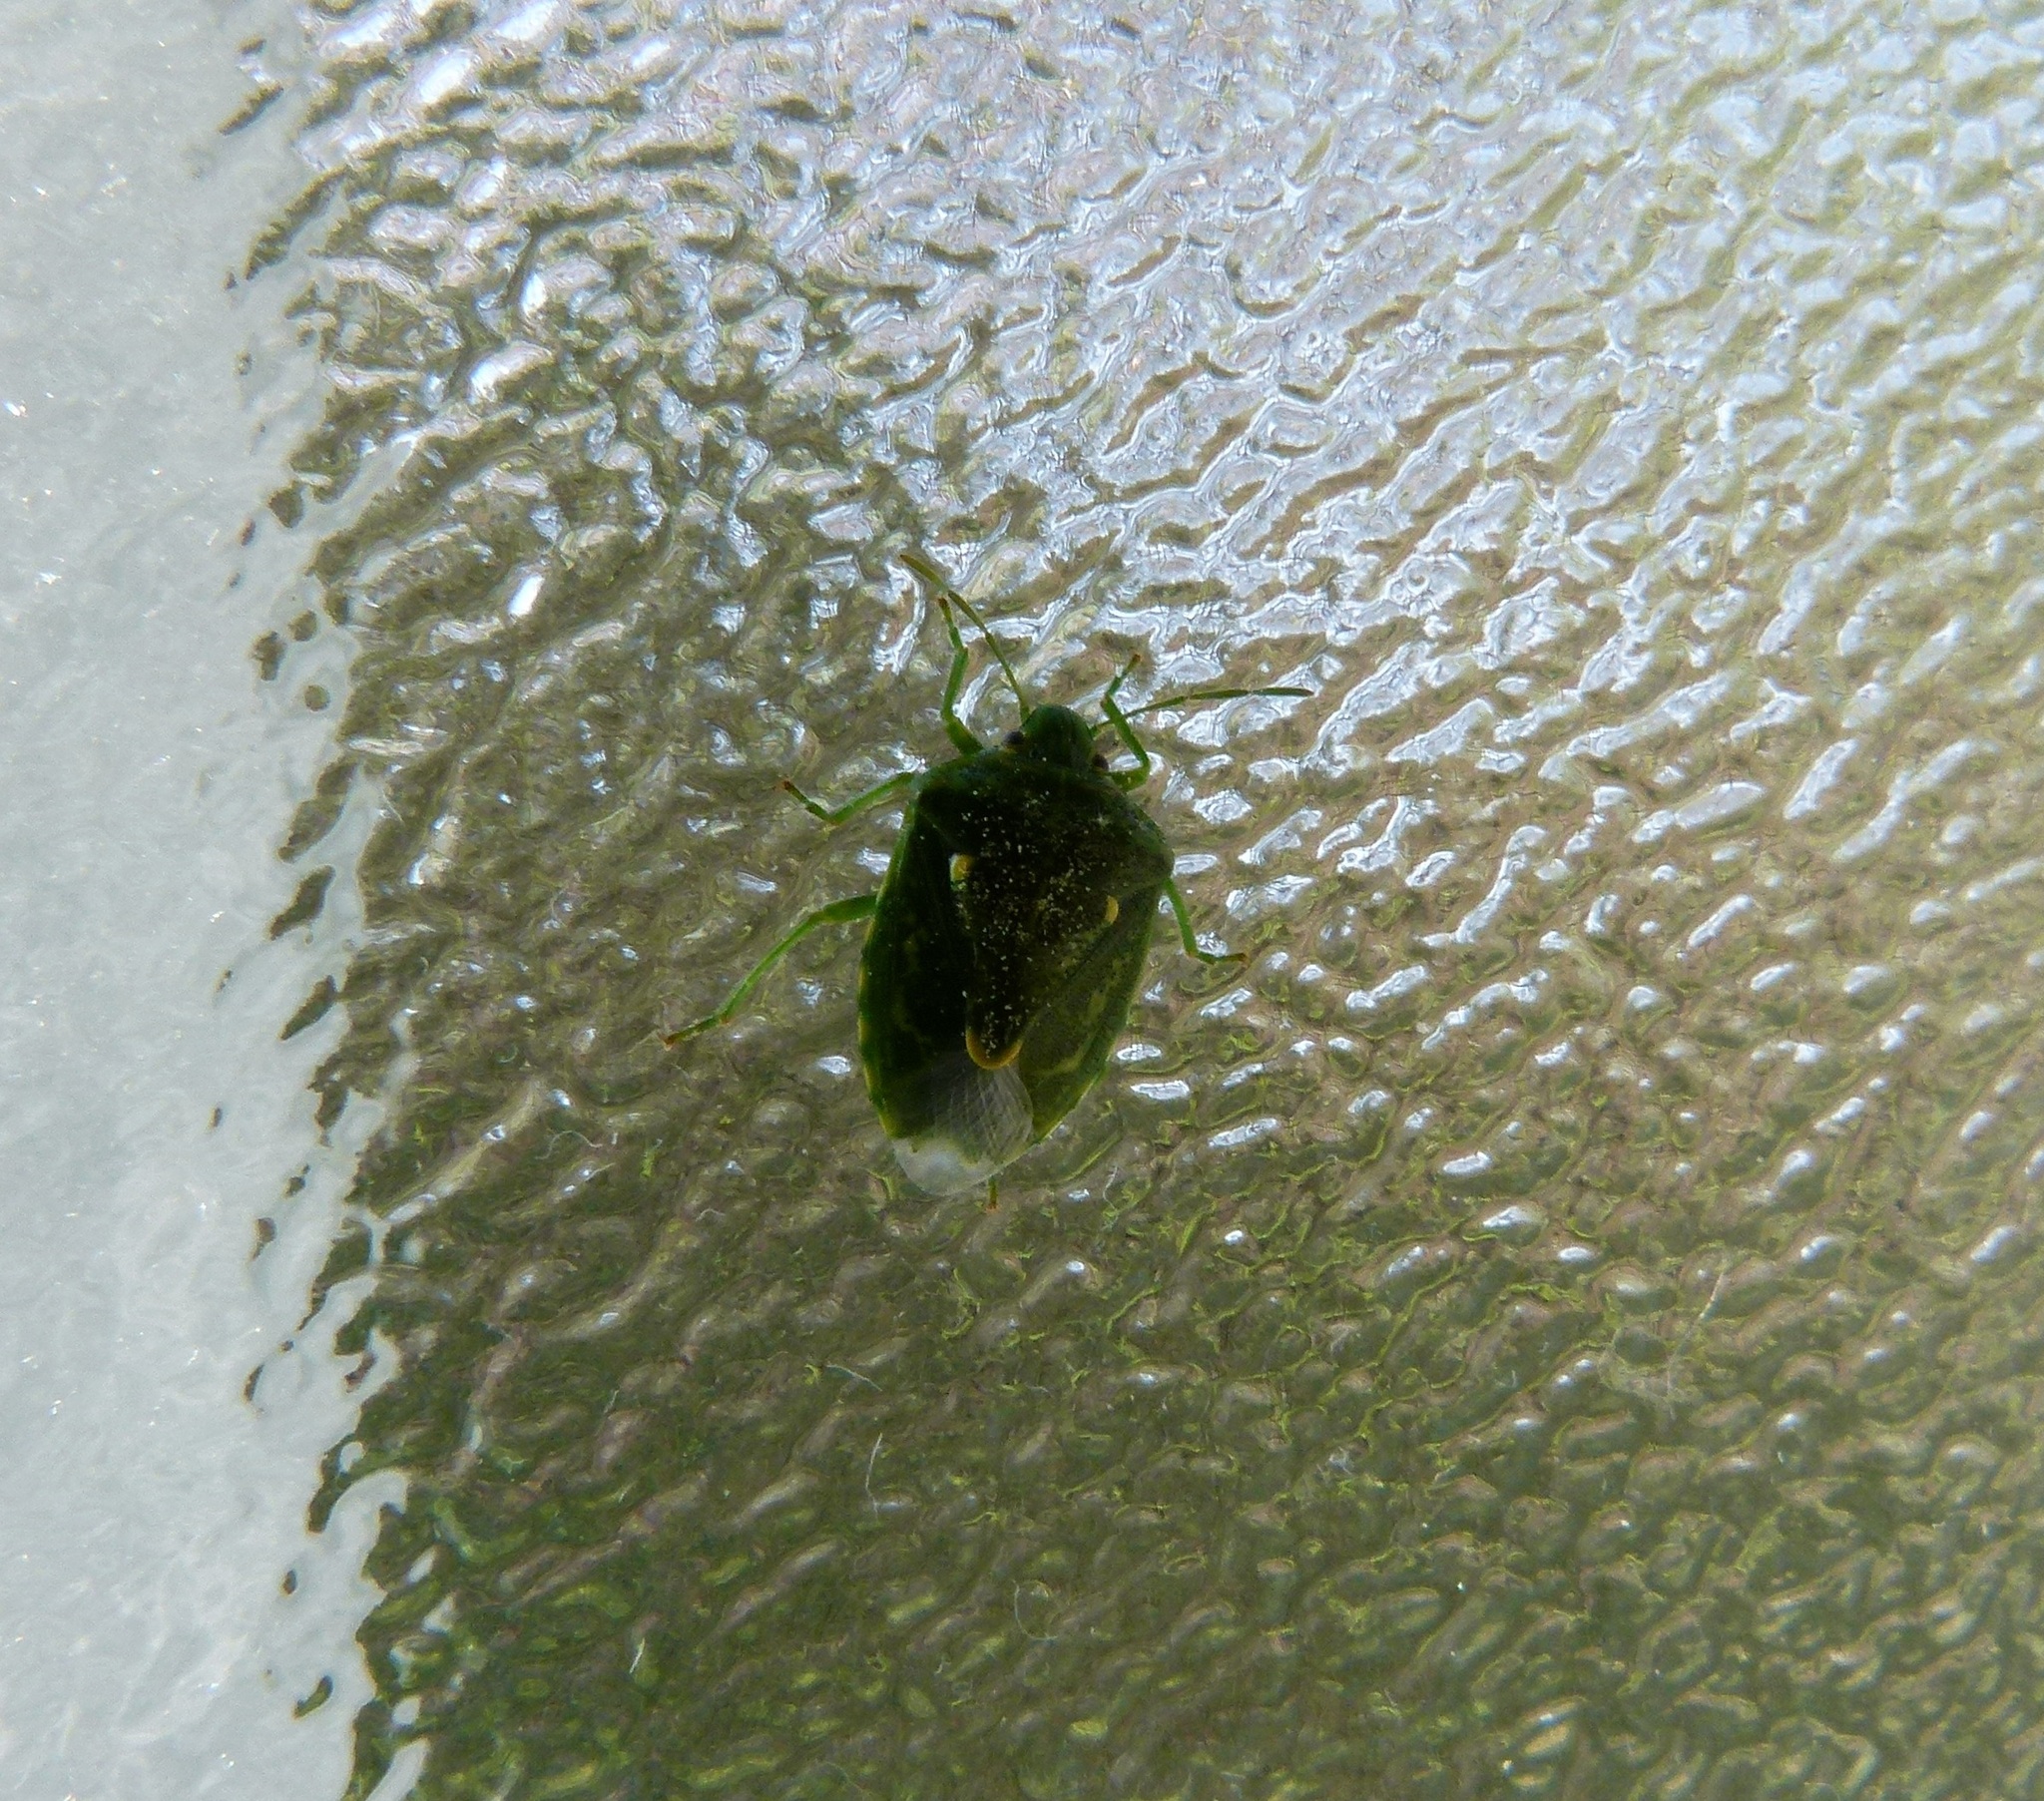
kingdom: Animalia
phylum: Arthropoda
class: Insecta
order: Hemiptera
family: Pentatomidae
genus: Banasa
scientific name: Banasa euchlora
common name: Cedar berry bug
